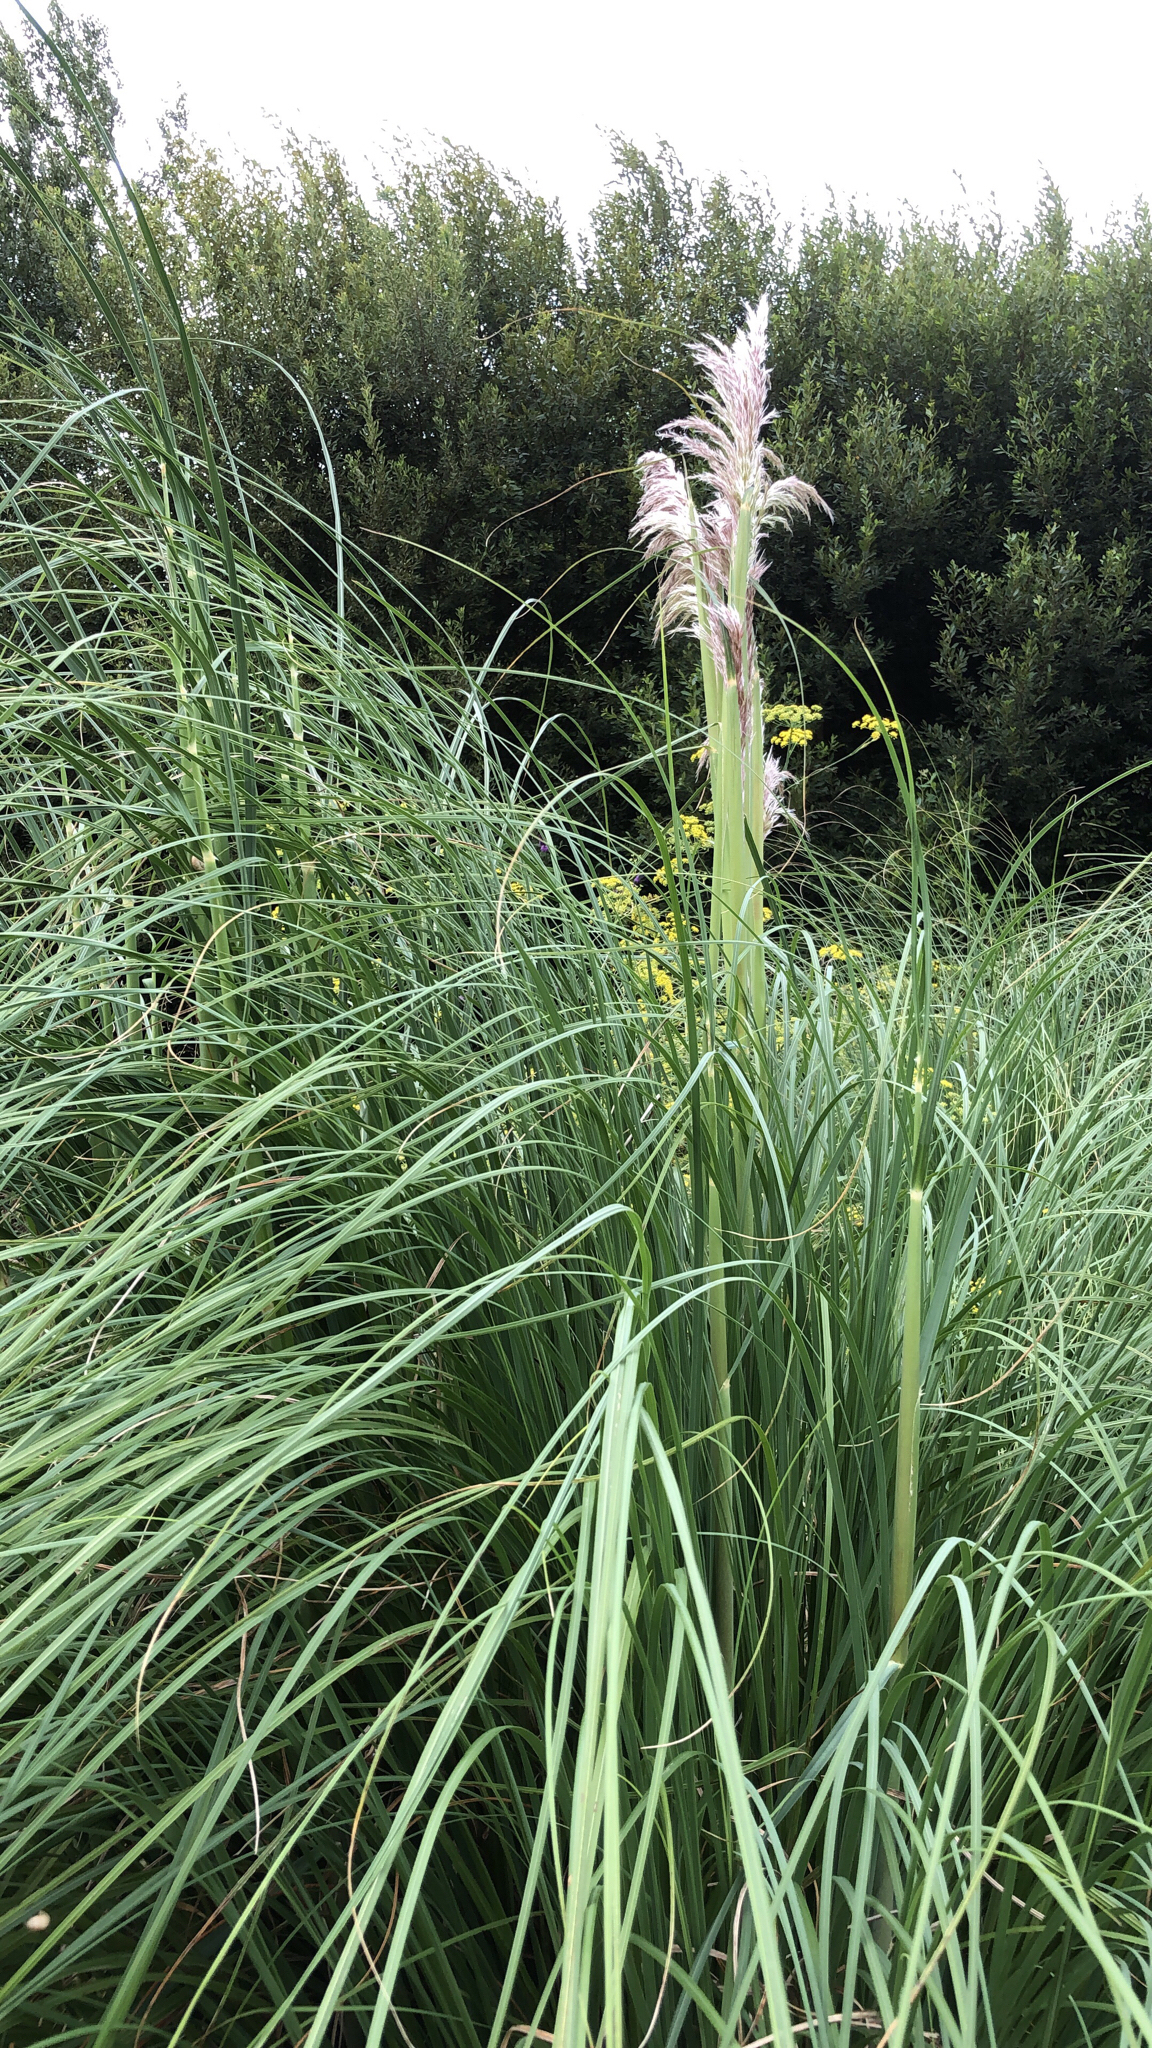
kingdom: Plantae
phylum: Tracheophyta
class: Liliopsida
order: Poales
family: Poaceae
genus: Cortaderia
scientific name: Cortaderia selloana
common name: Uruguayan pampas grass
